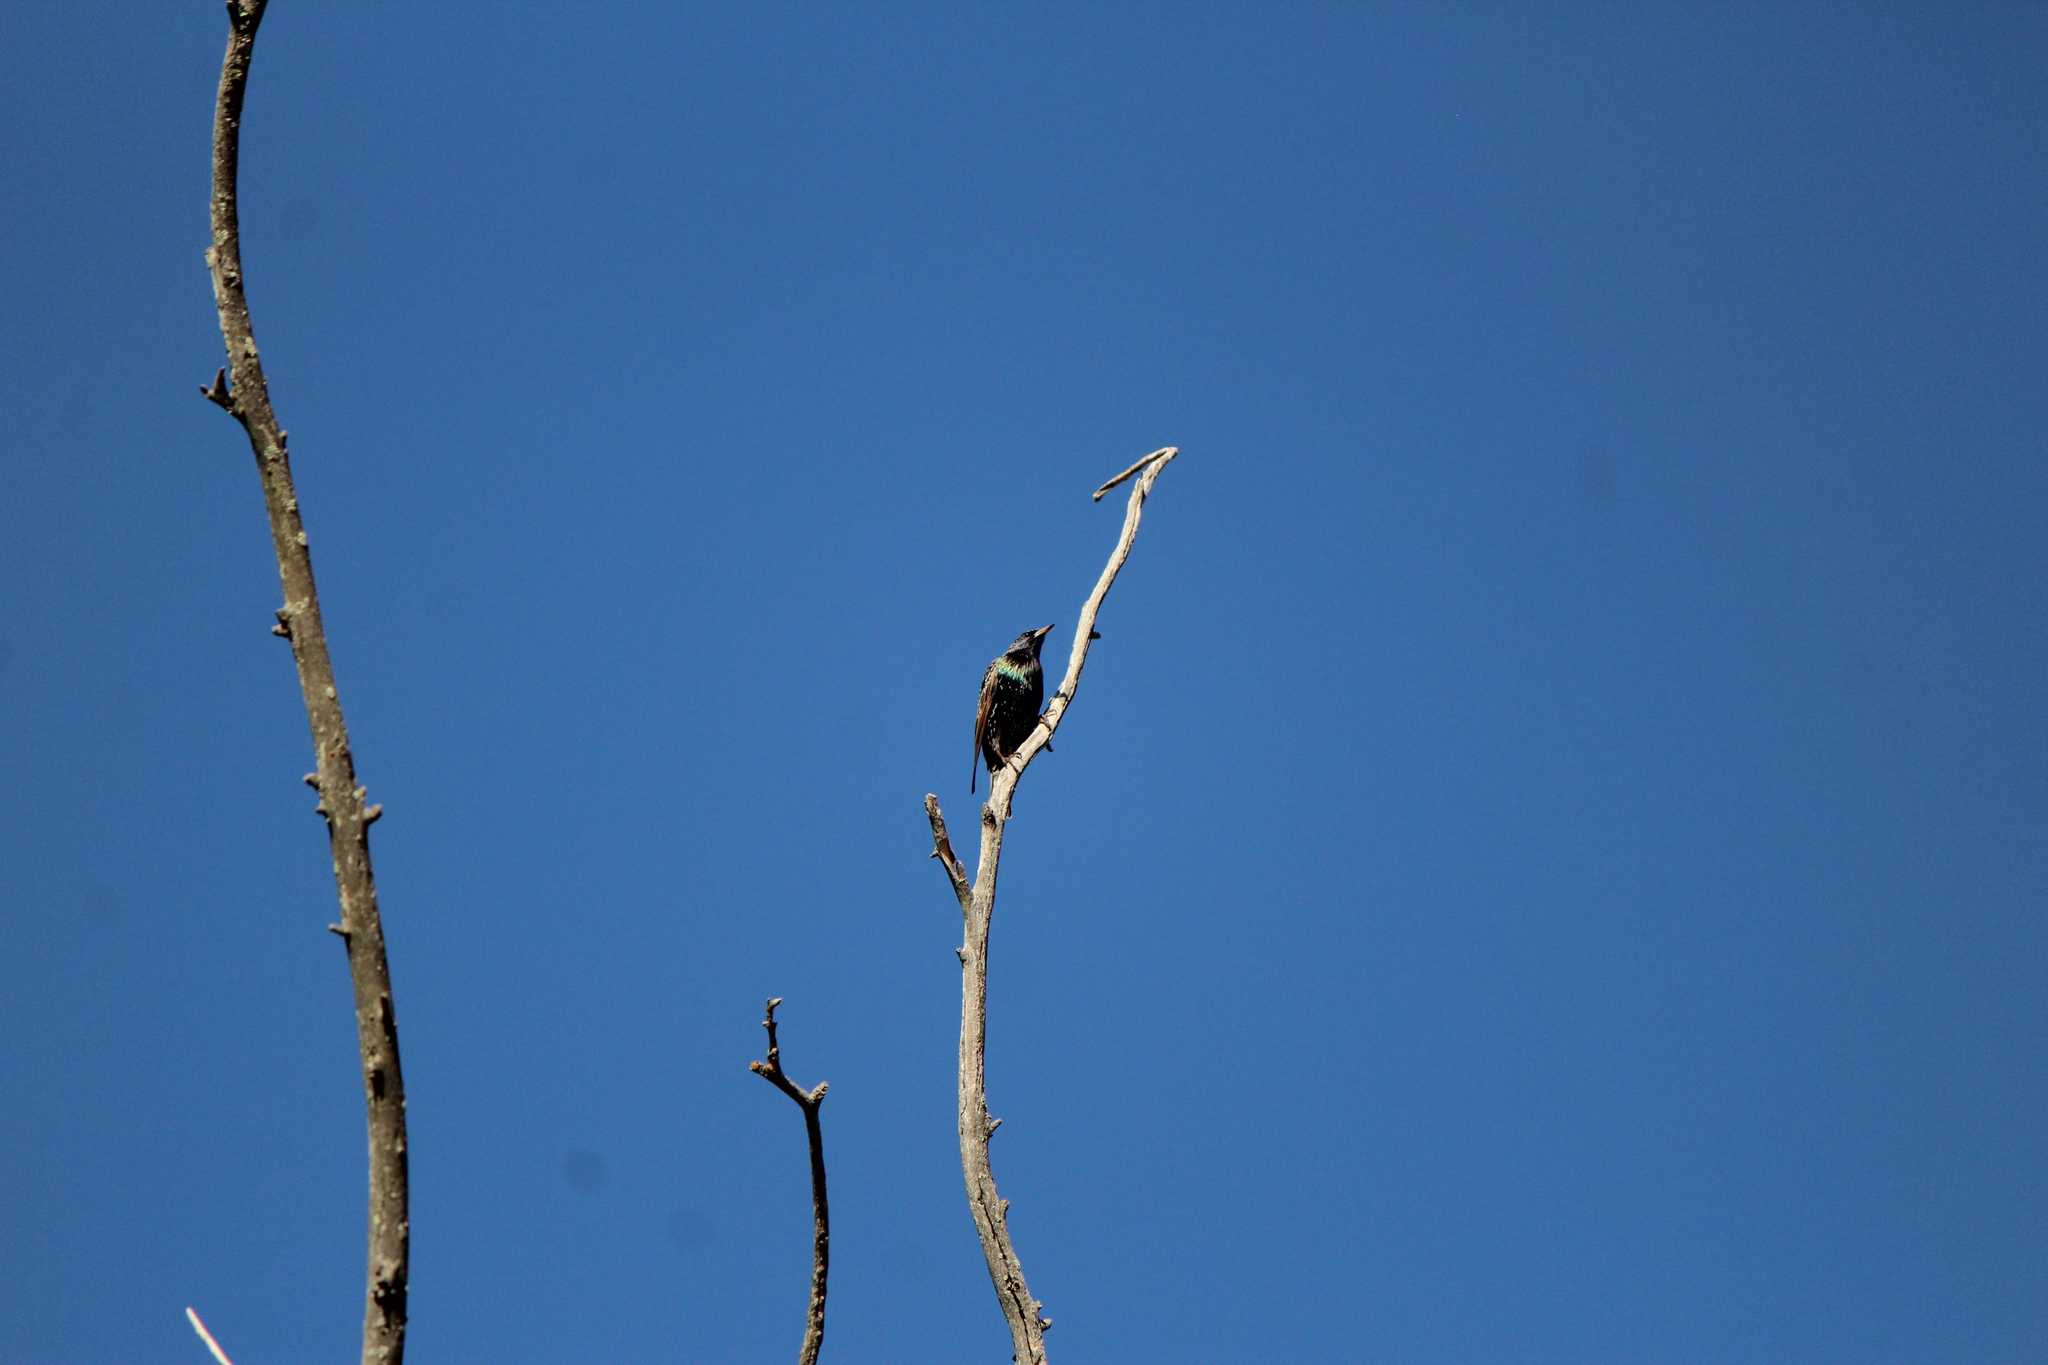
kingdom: Animalia
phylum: Chordata
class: Aves
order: Passeriformes
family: Sturnidae
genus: Sturnus
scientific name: Sturnus vulgaris
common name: Common starling
